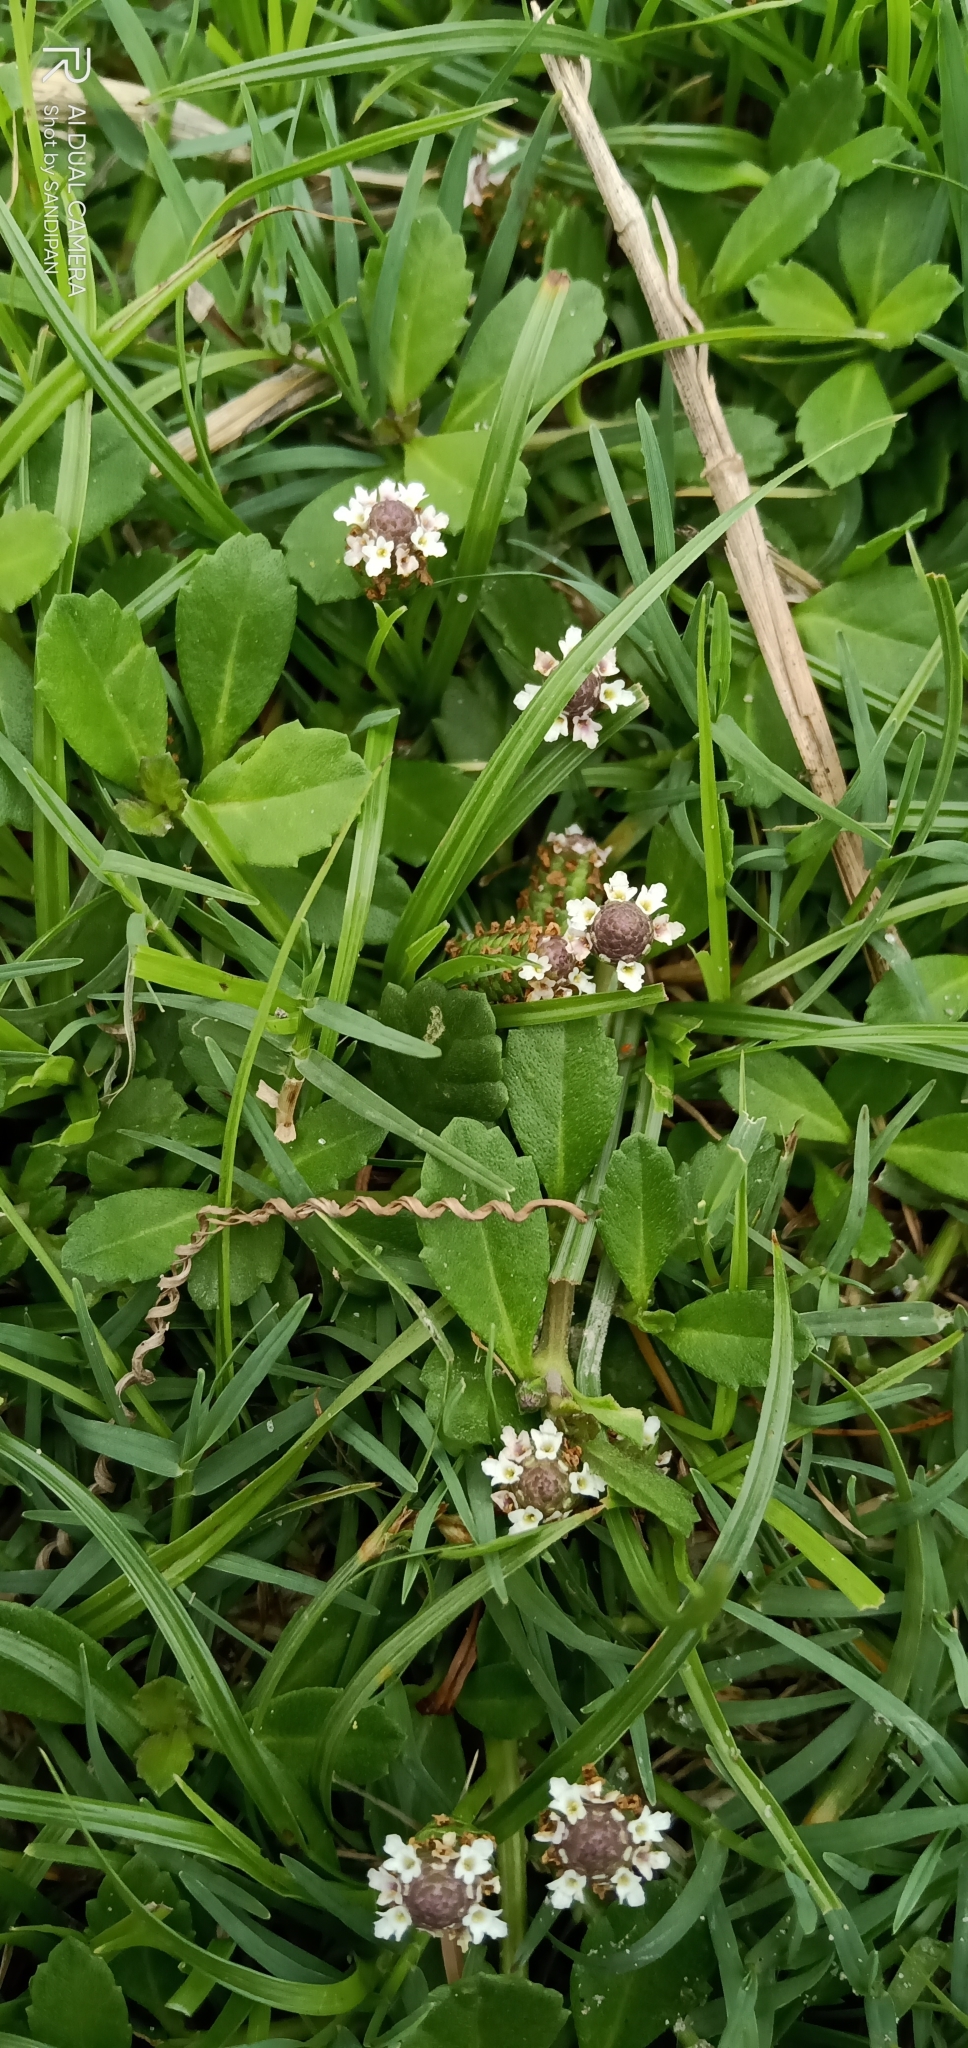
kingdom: Plantae
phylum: Tracheophyta
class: Magnoliopsida
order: Lamiales
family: Verbenaceae
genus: Phyla
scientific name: Phyla nodiflora
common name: Frogfruit
